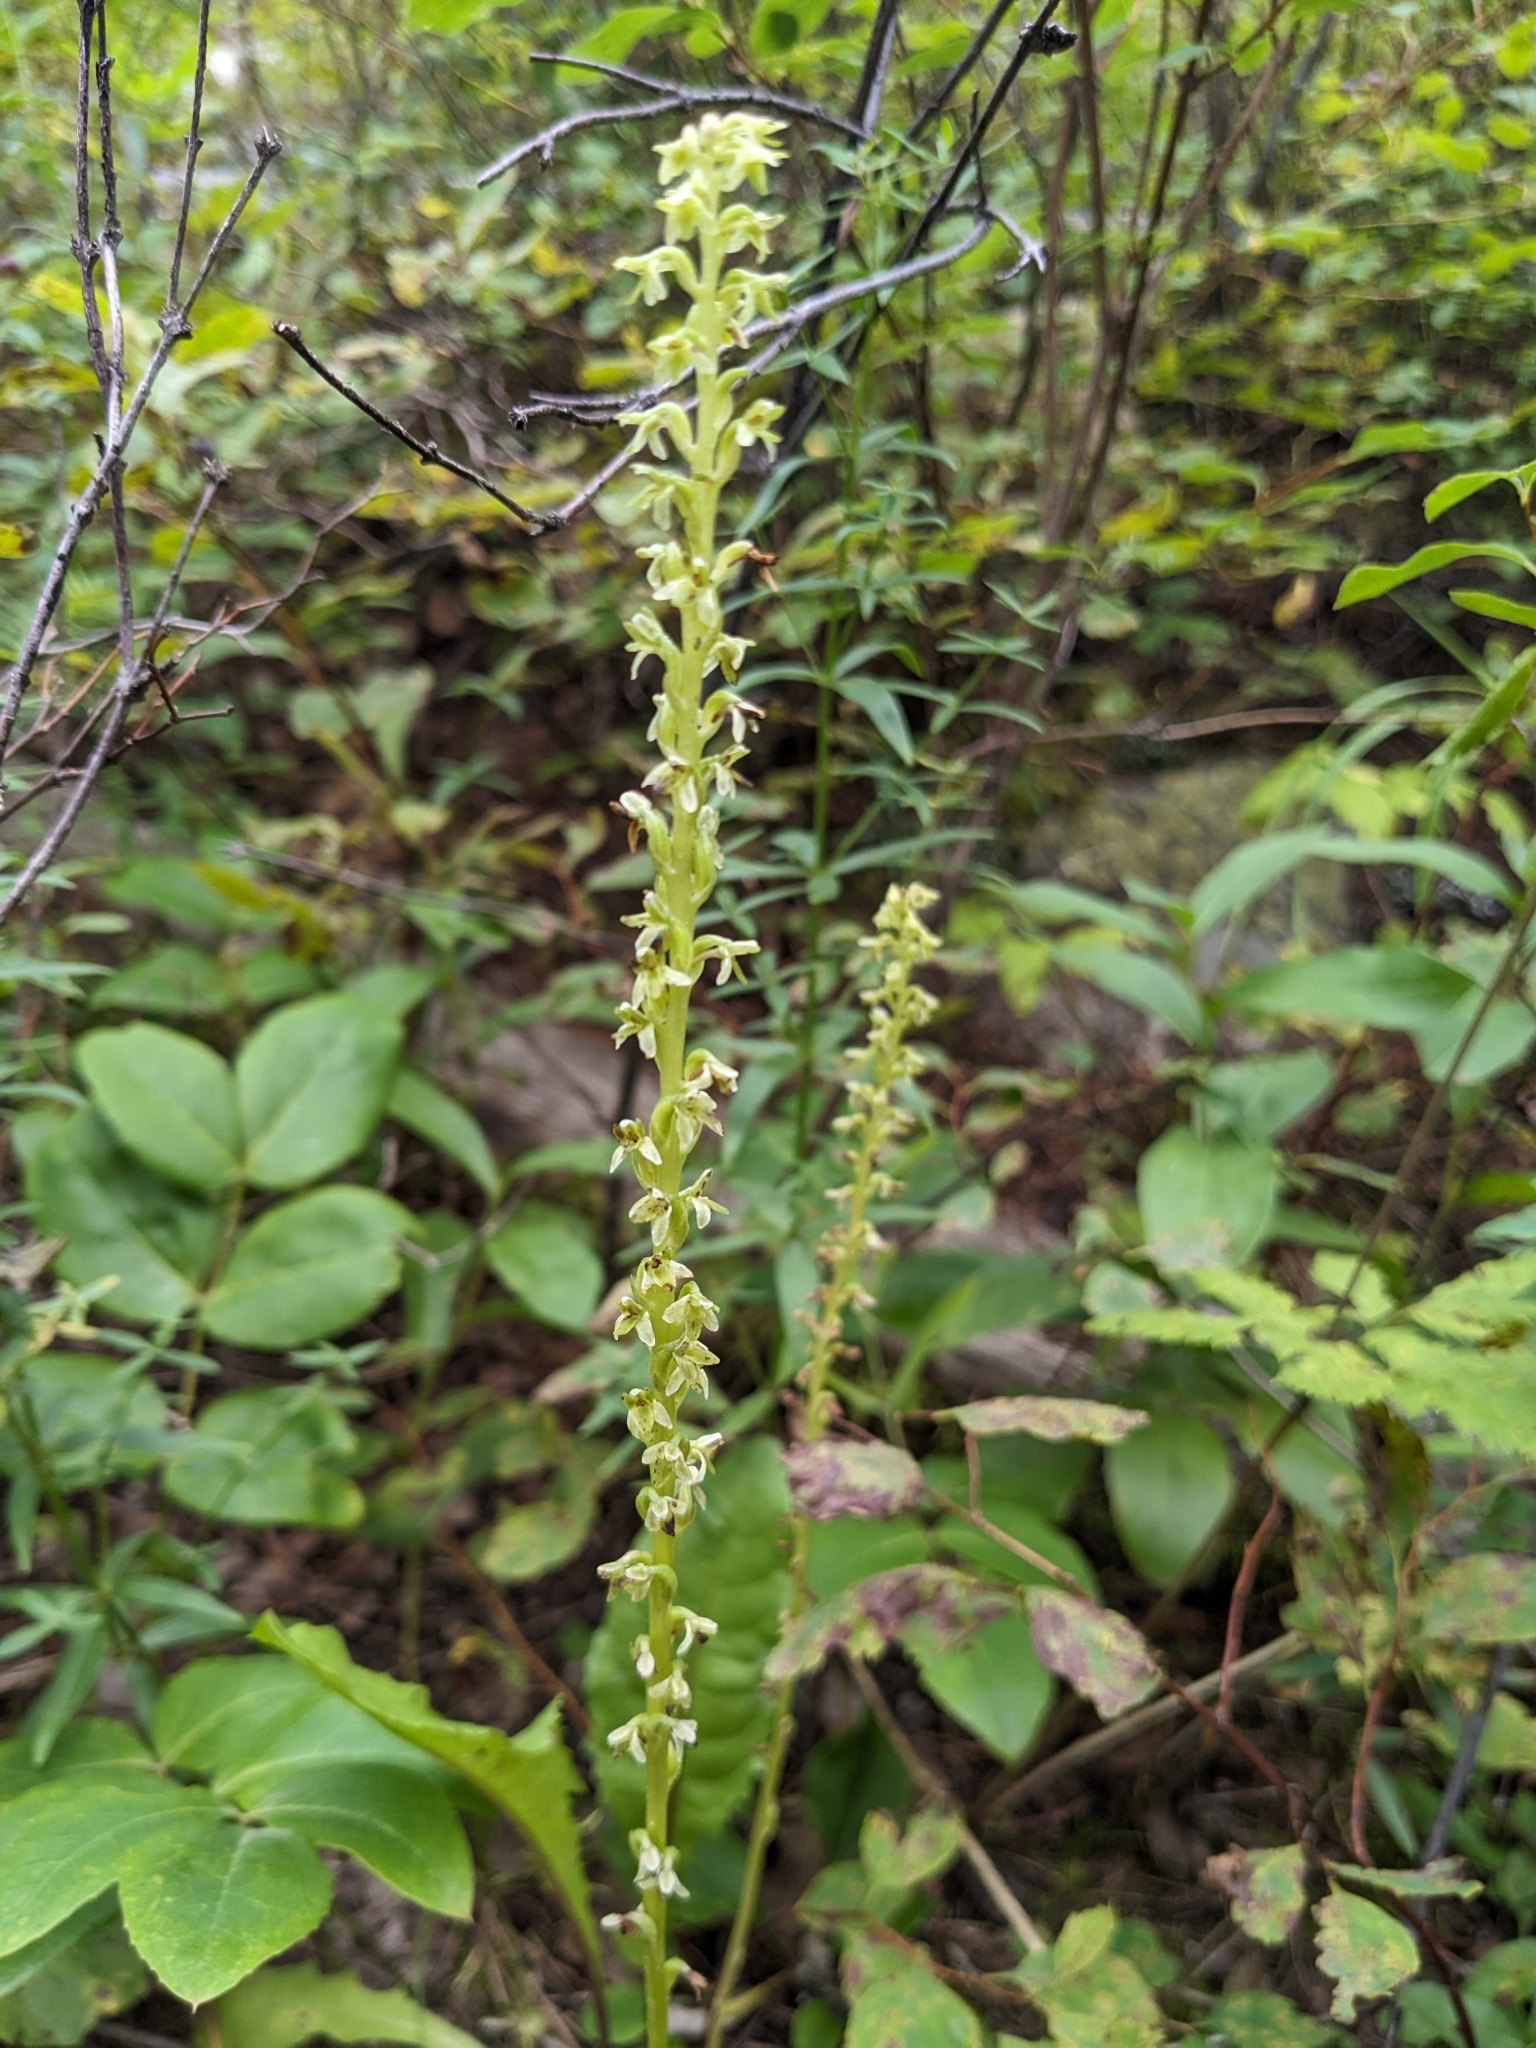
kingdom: Plantae
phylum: Tracheophyta
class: Liliopsida
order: Asparagales
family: Orchidaceae
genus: Platanthera
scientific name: Platanthera unalascensis
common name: Alaska bog orchid
